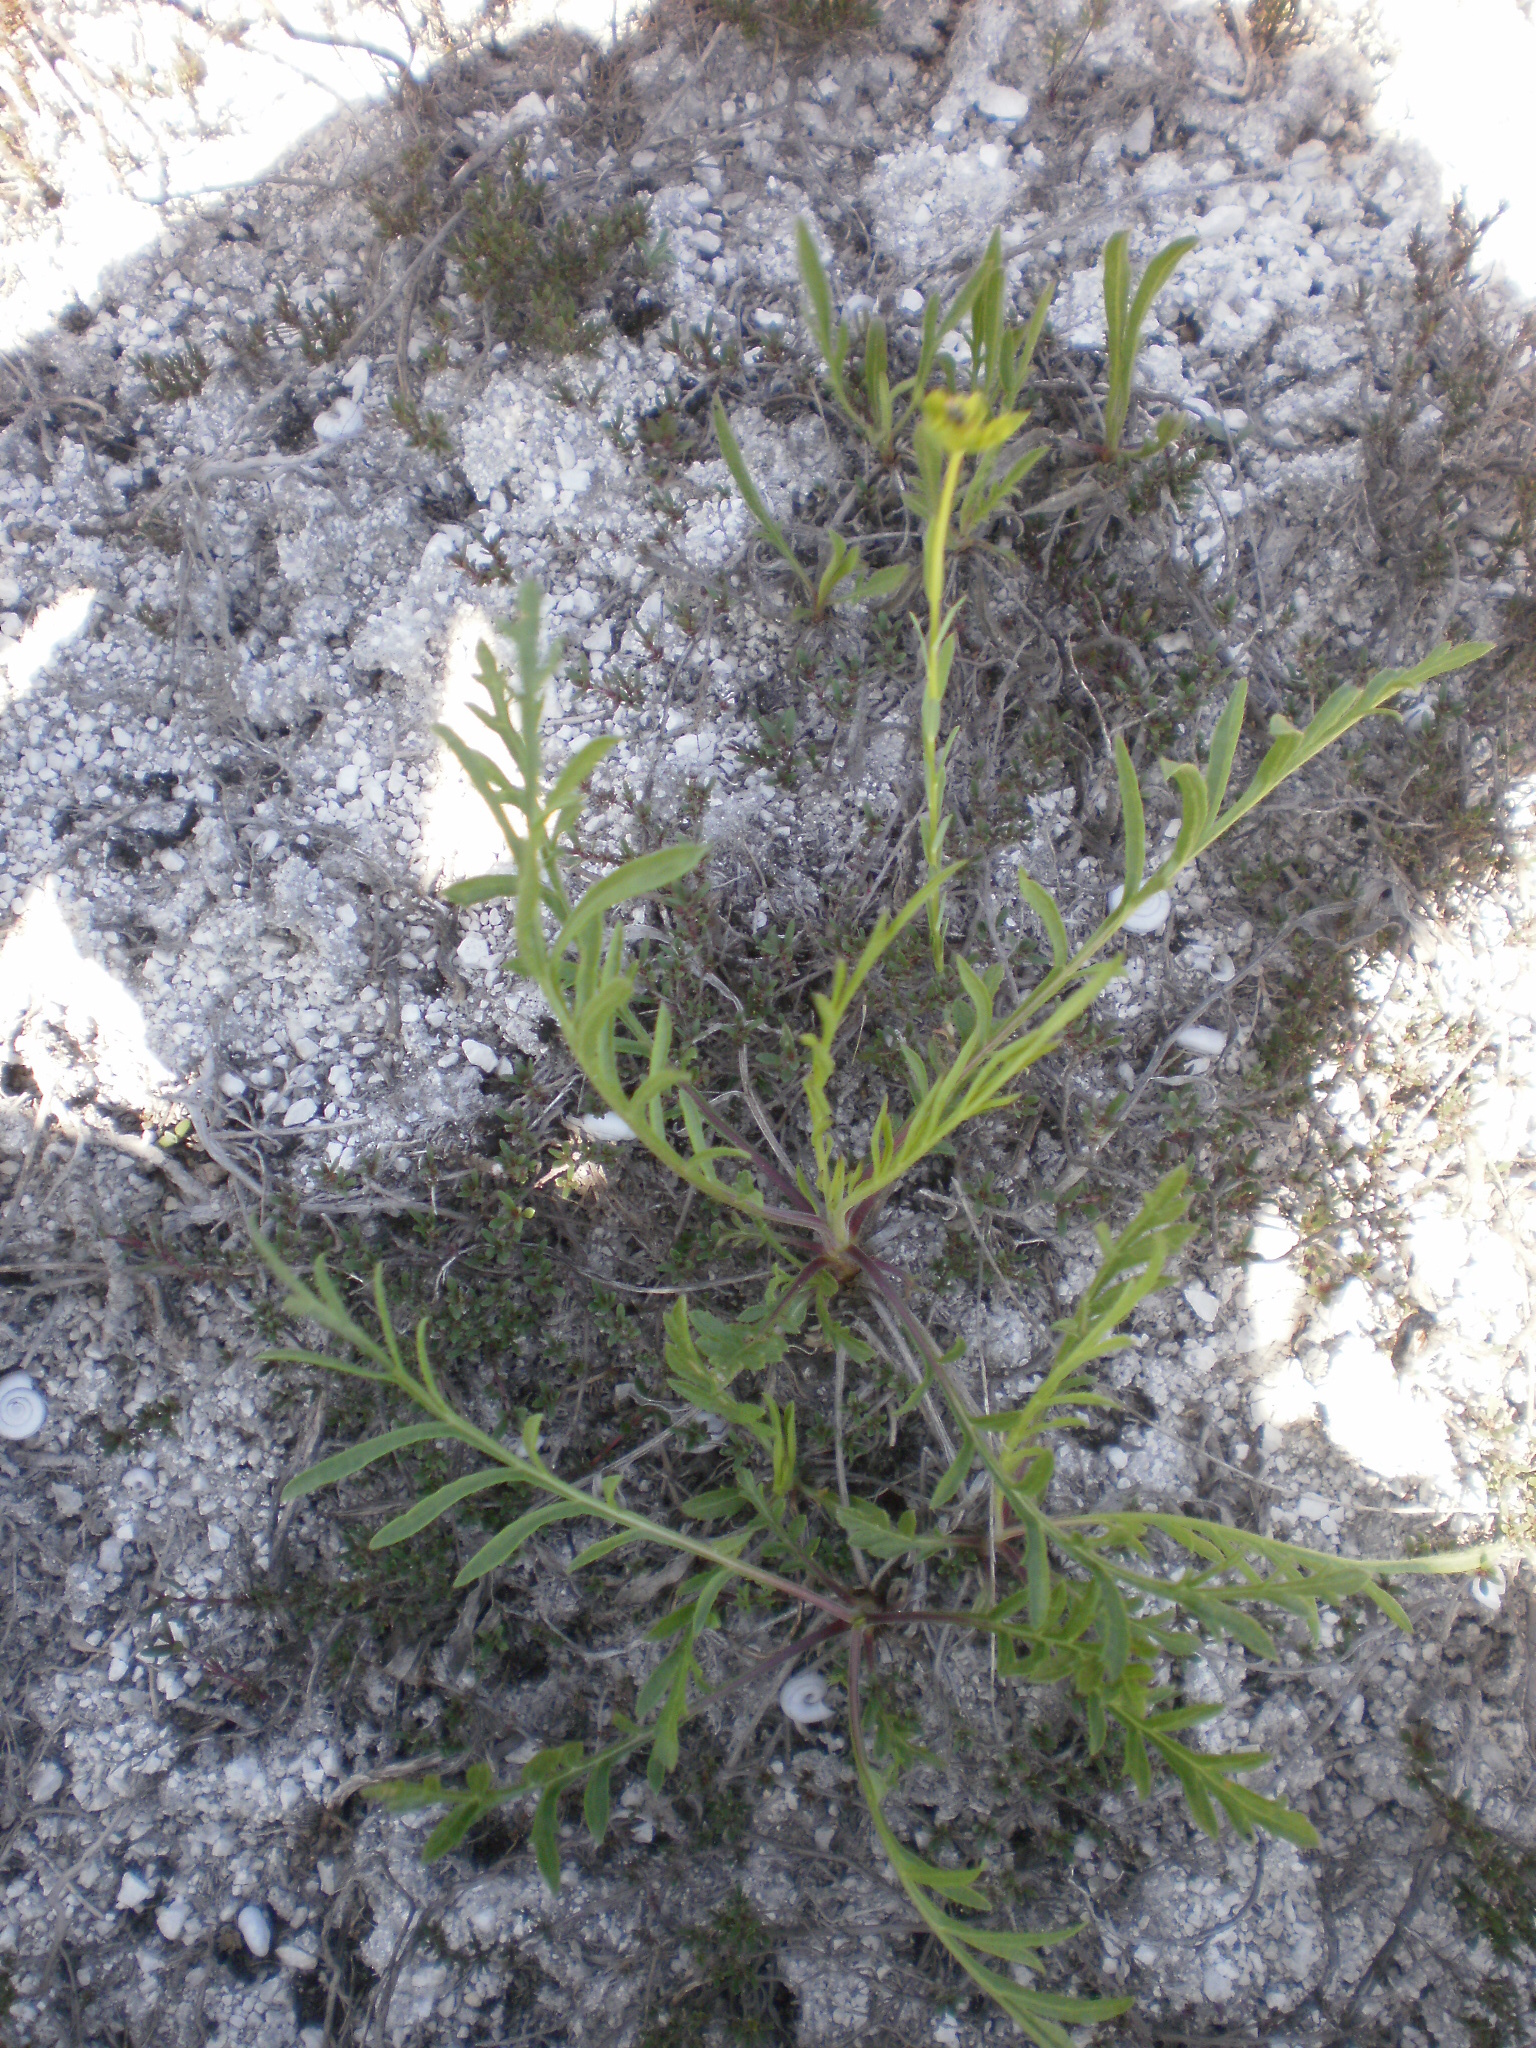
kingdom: Plantae
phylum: Tracheophyta
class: Magnoliopsida
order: Dipsacales
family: Caprifoliaceae
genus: Cephalaria
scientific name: Cephalaria uralensis
